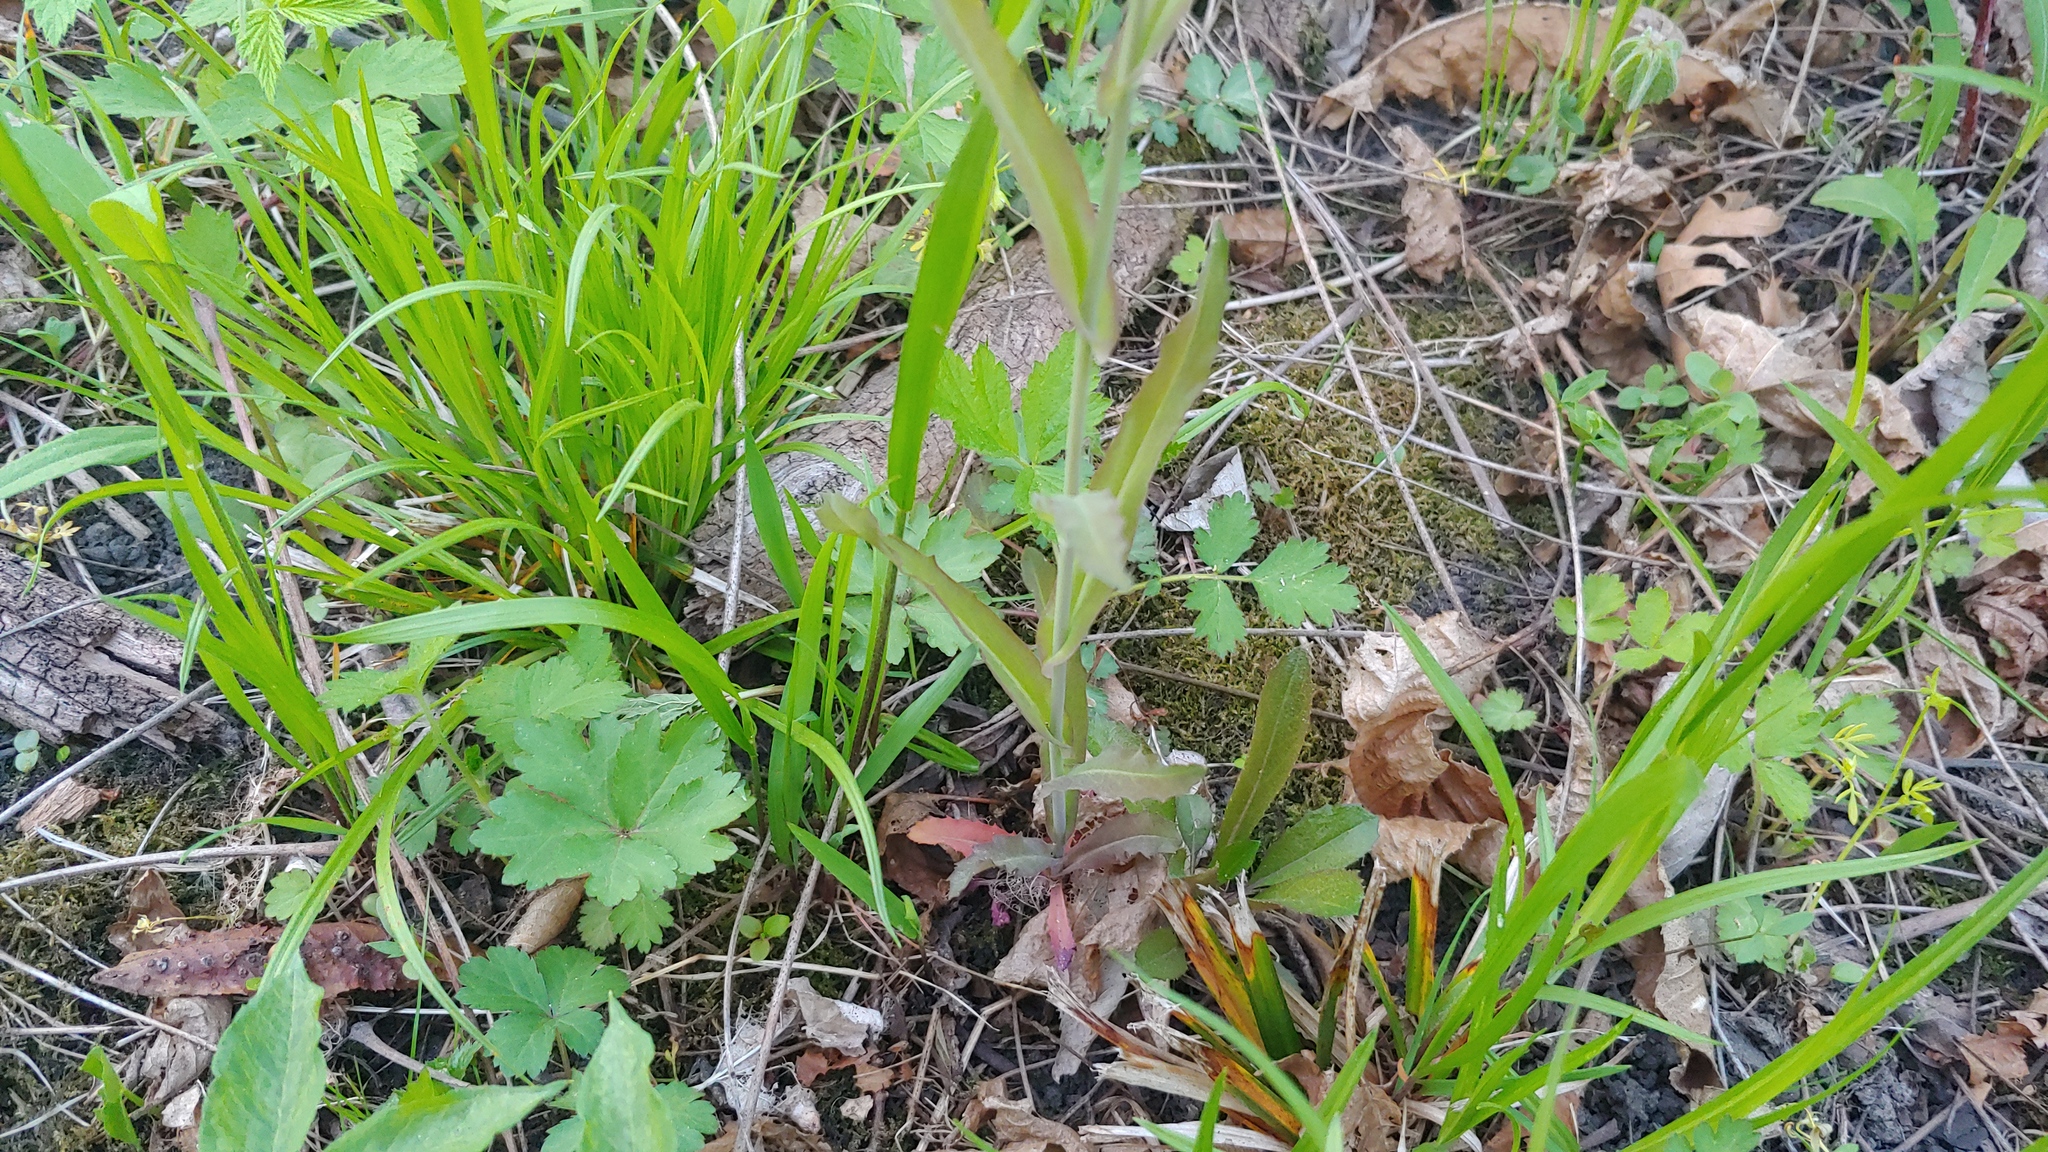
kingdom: Plantae
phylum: Tracheophyta
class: Magnoliopsida
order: Brassicales
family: Brassicaceae
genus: Borodinia
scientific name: Borodinia laevigata
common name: Smooth rockcress
